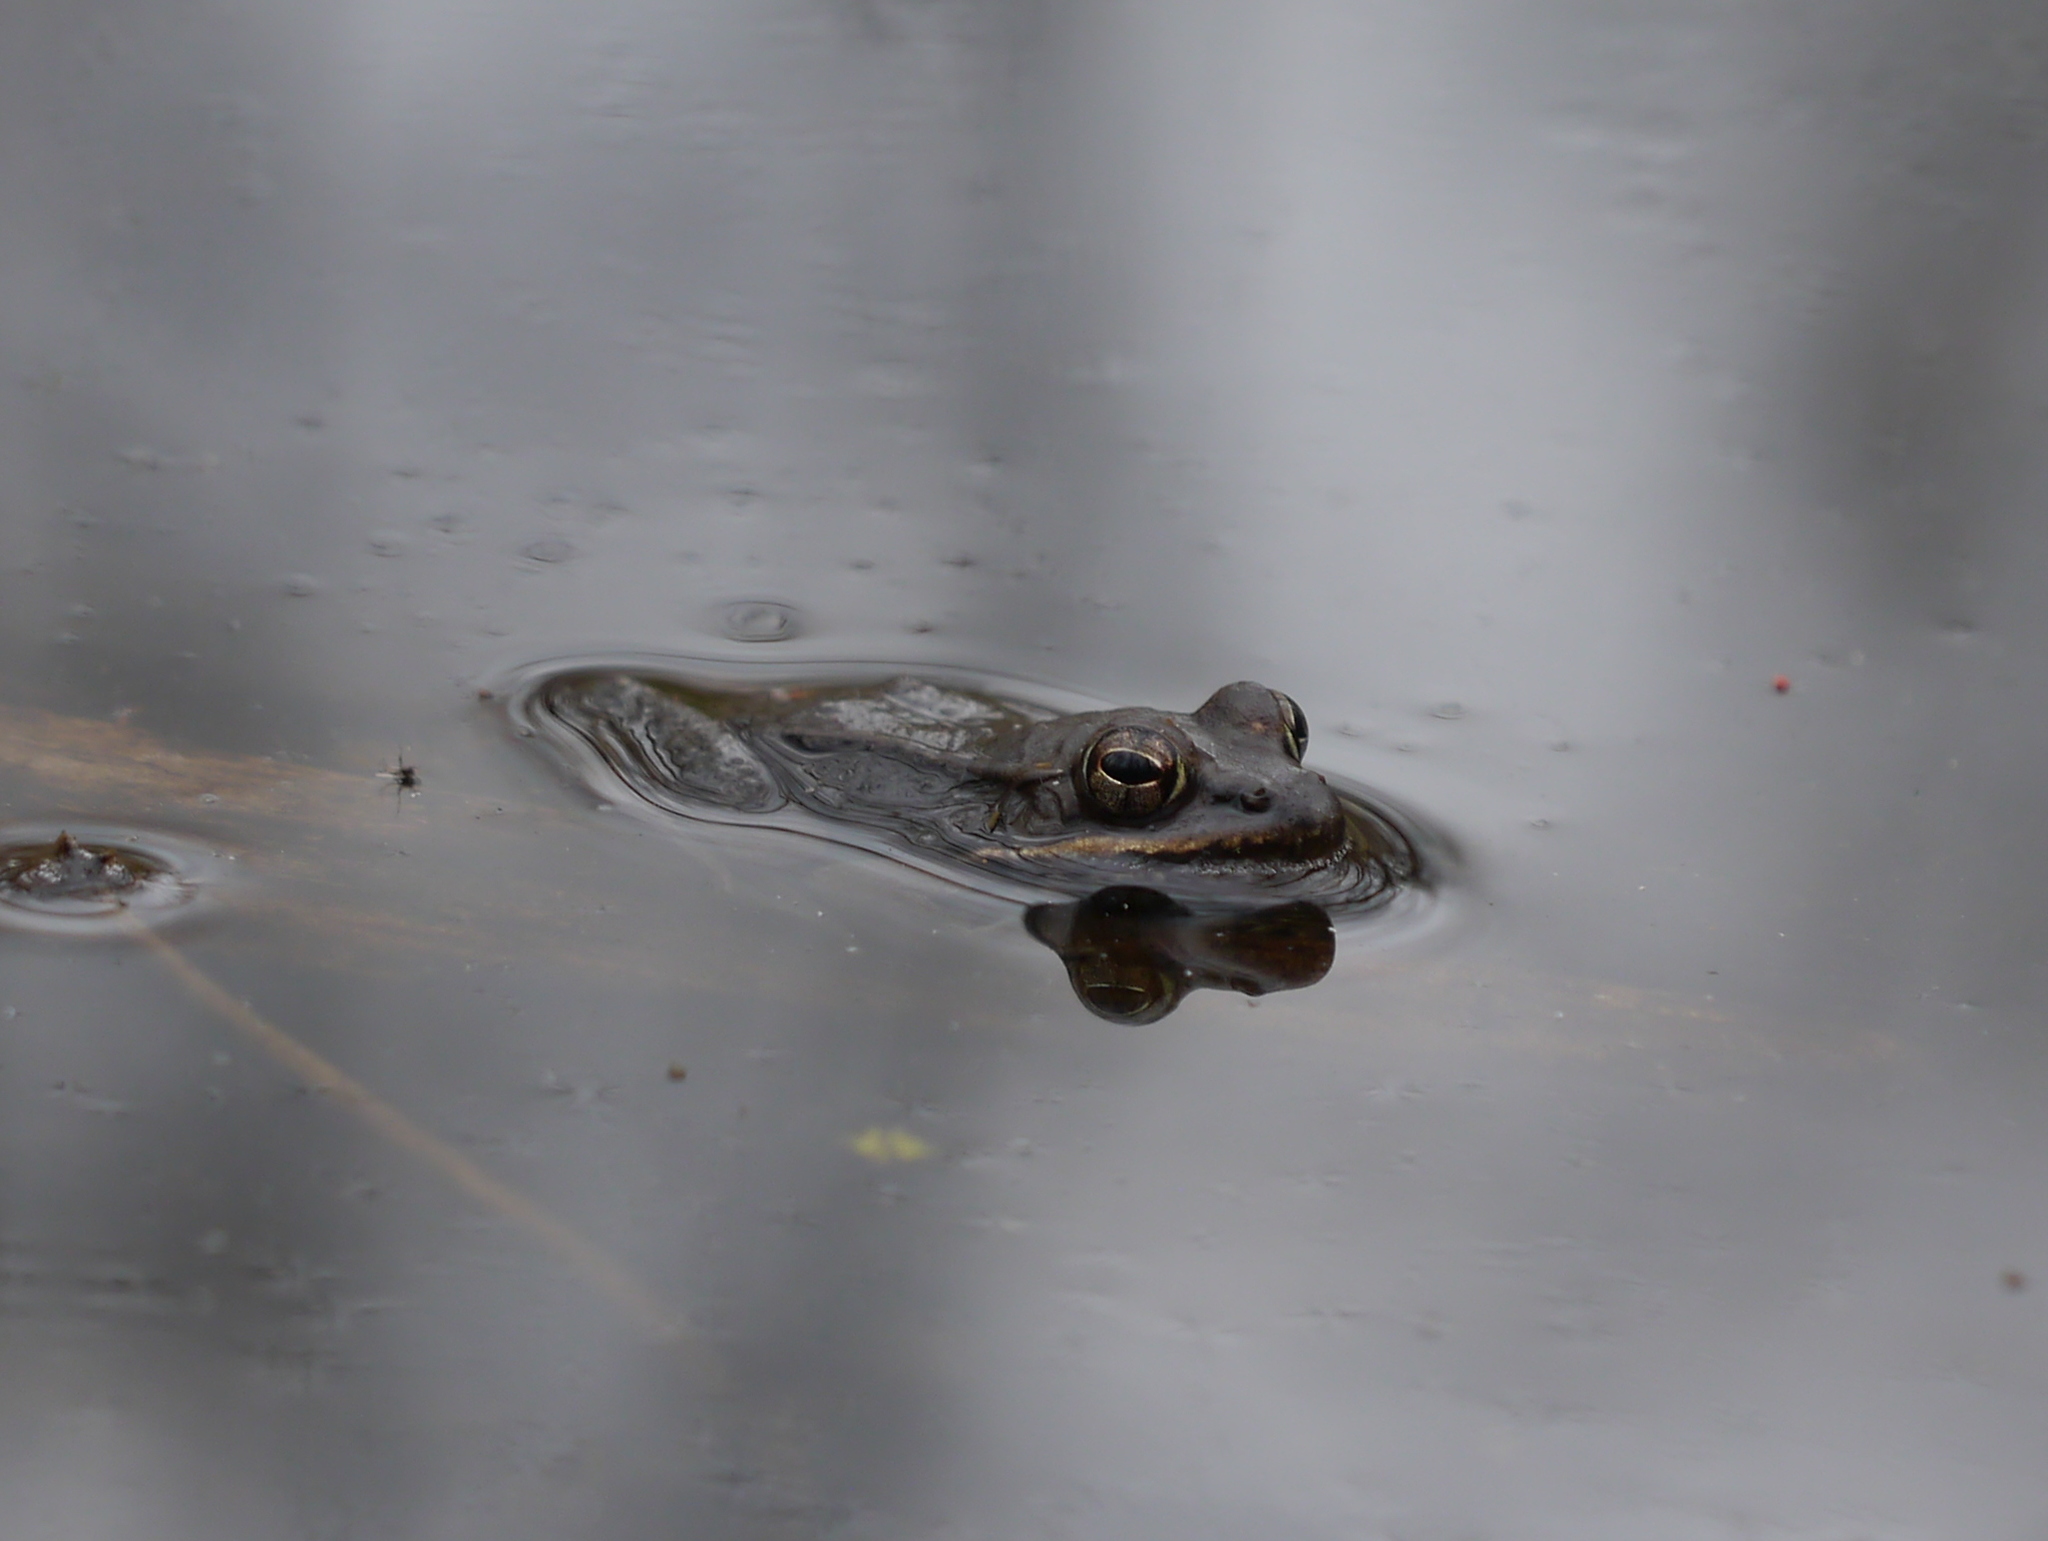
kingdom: Animalia
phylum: Chordata
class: Amphibia
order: Anura
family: Ranidae
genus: Lithobates
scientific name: Lithobates sylvaticus
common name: Wood frog
